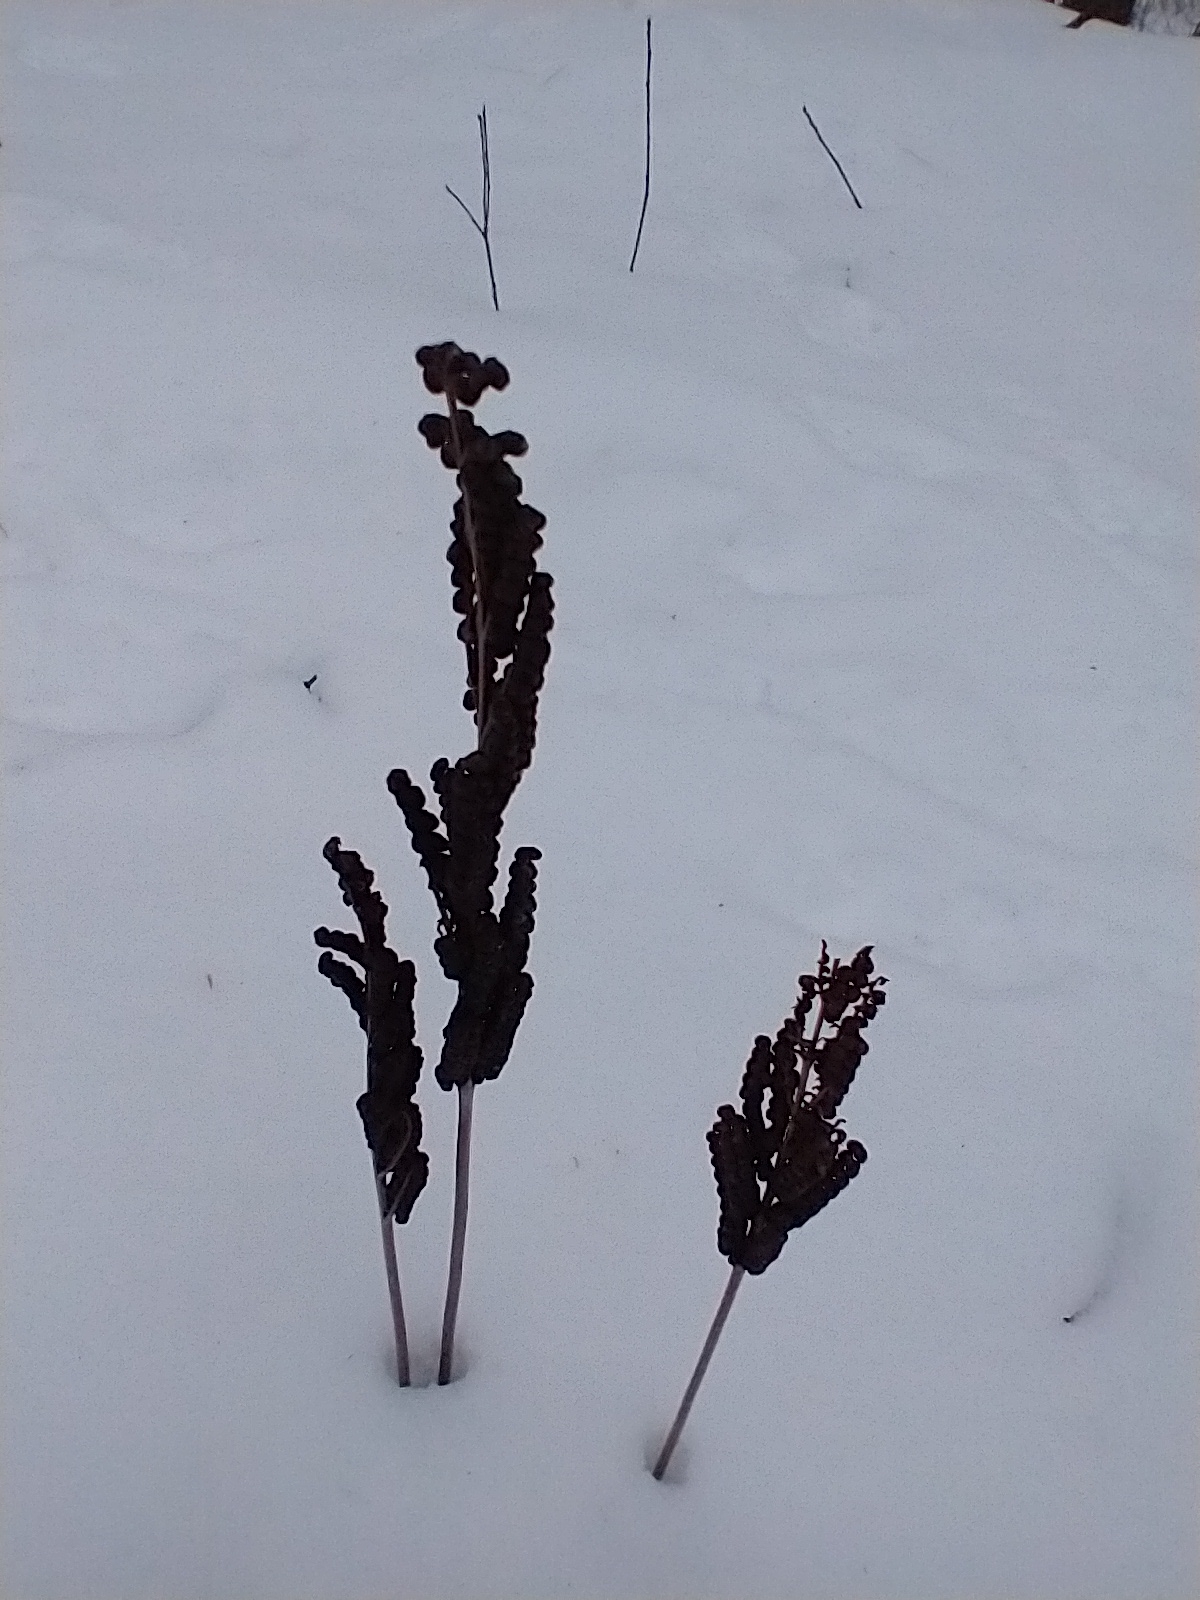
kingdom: Plantae
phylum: Tracheophyta
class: Polypodiopsida
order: Polypodiales
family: Onocleaceae
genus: Onoclea
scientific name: Onoclea sensibilis
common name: Sensitive fern
